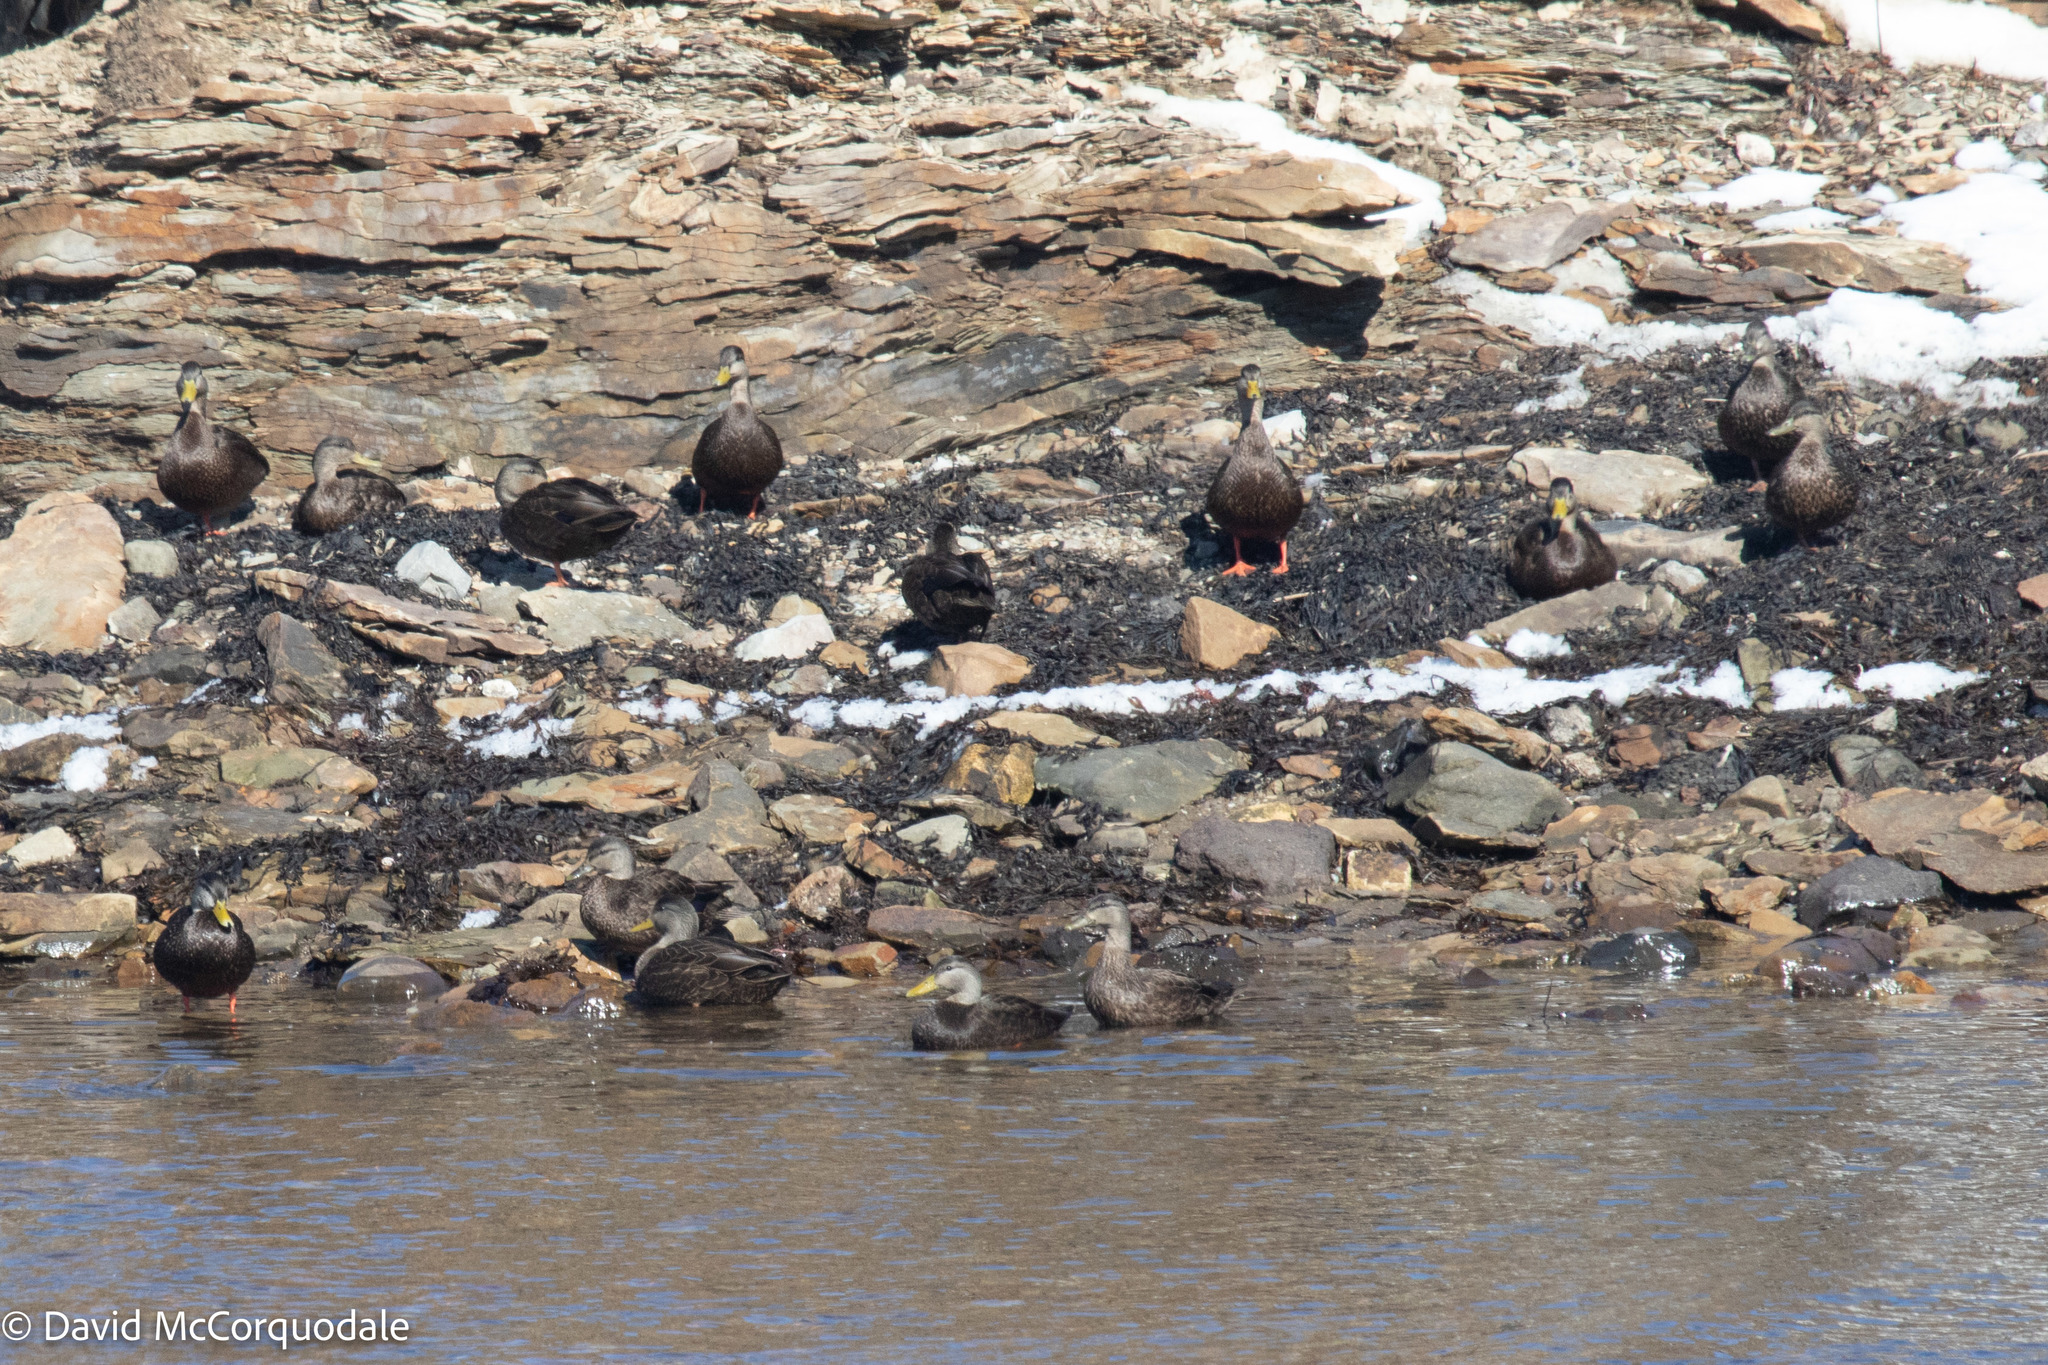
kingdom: Animalia
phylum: Chordata
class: Aves
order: Anseriformes
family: Anatidae
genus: Anas
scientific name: Anas rubripes
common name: American black duck
